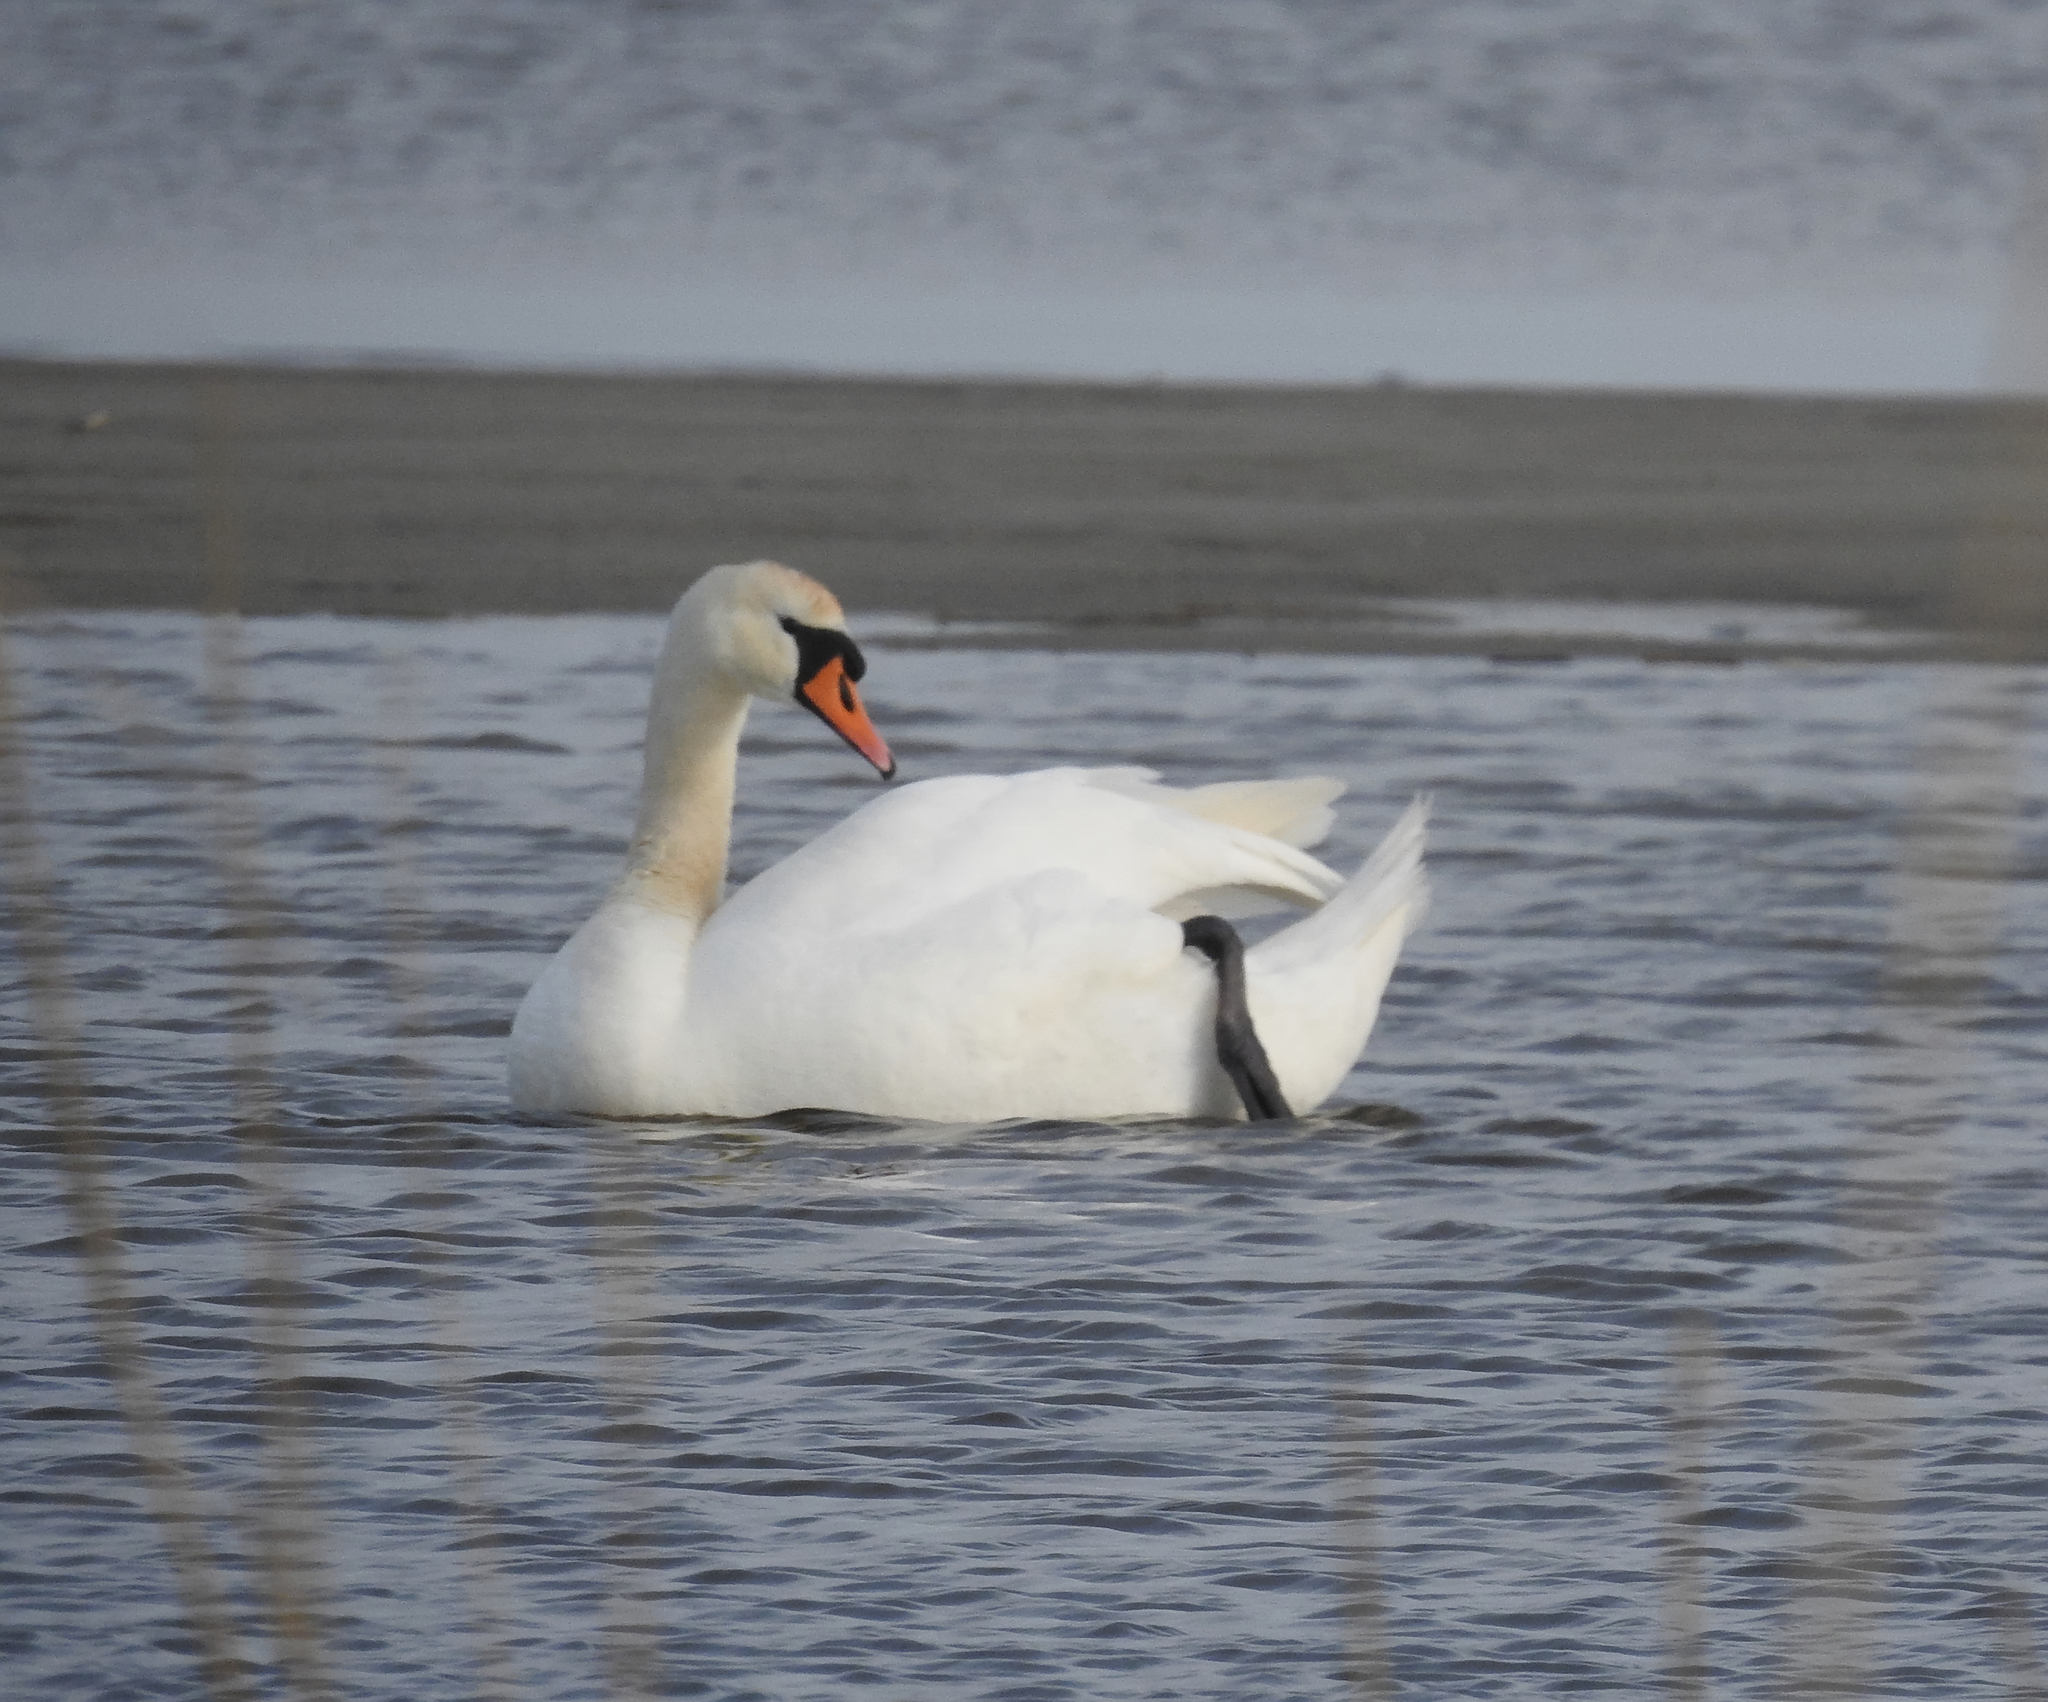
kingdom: Animalia
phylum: Chordata
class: Aves
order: Anseriformes
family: Anatidae
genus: Cygnus
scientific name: Cygnus olor
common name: Mute swan
